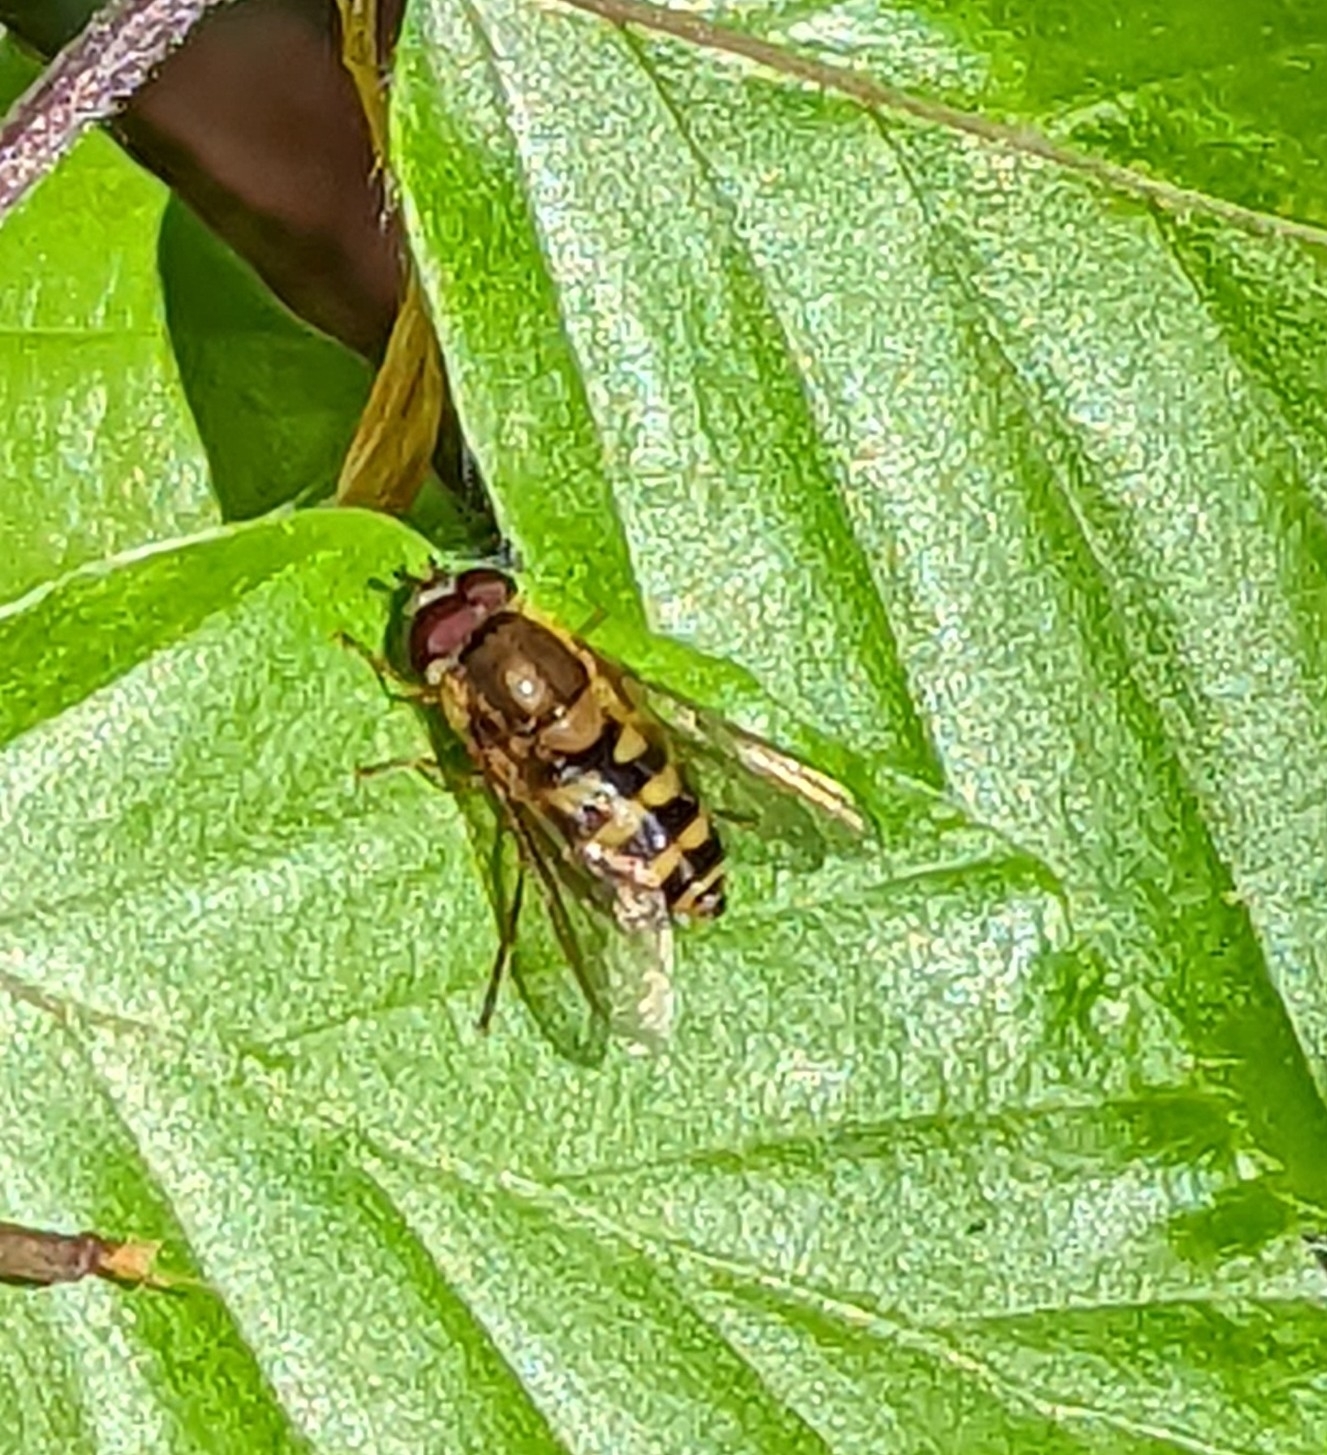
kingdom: Animalia
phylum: Arthropoda
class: Insecta
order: Diptera
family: Syrphidae
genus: Syrphus
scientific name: Syrphus
